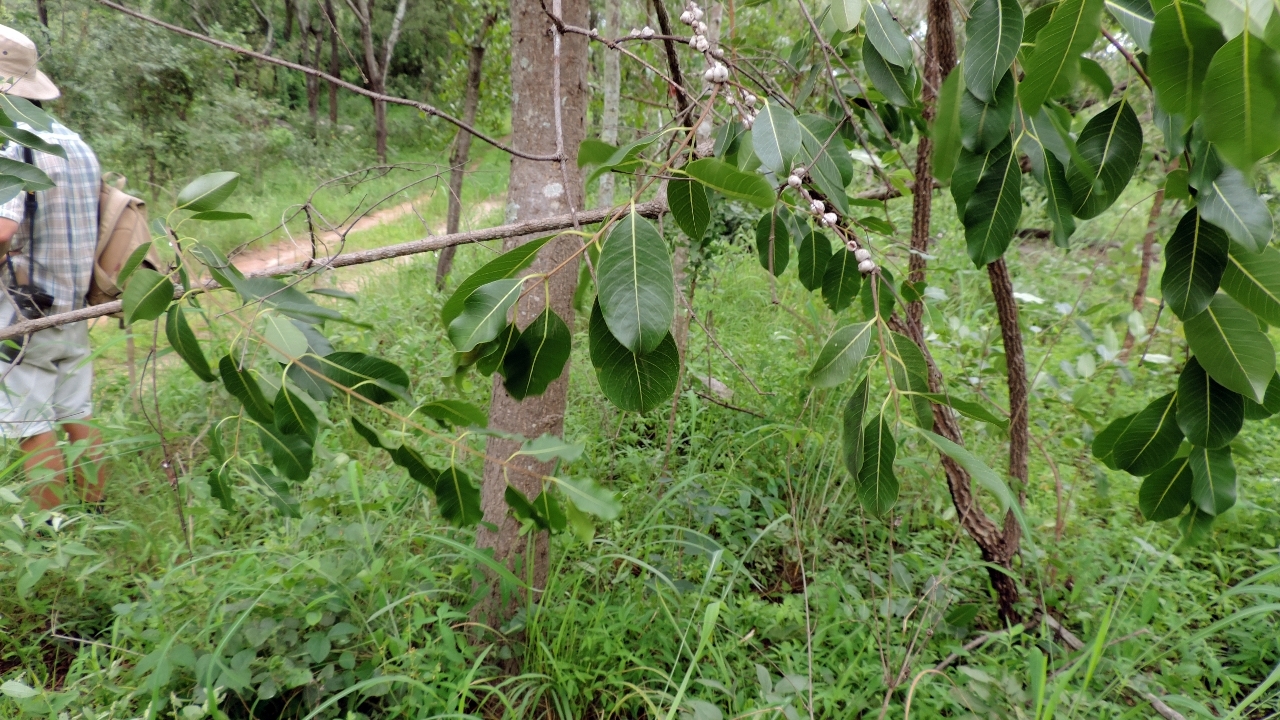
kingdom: Plantae
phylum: Tracheophyta
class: Magnoliopsida
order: Gentianales
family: Apocynaceae
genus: Diplorhynchus
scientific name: Diplorhynchus condylocarpon
